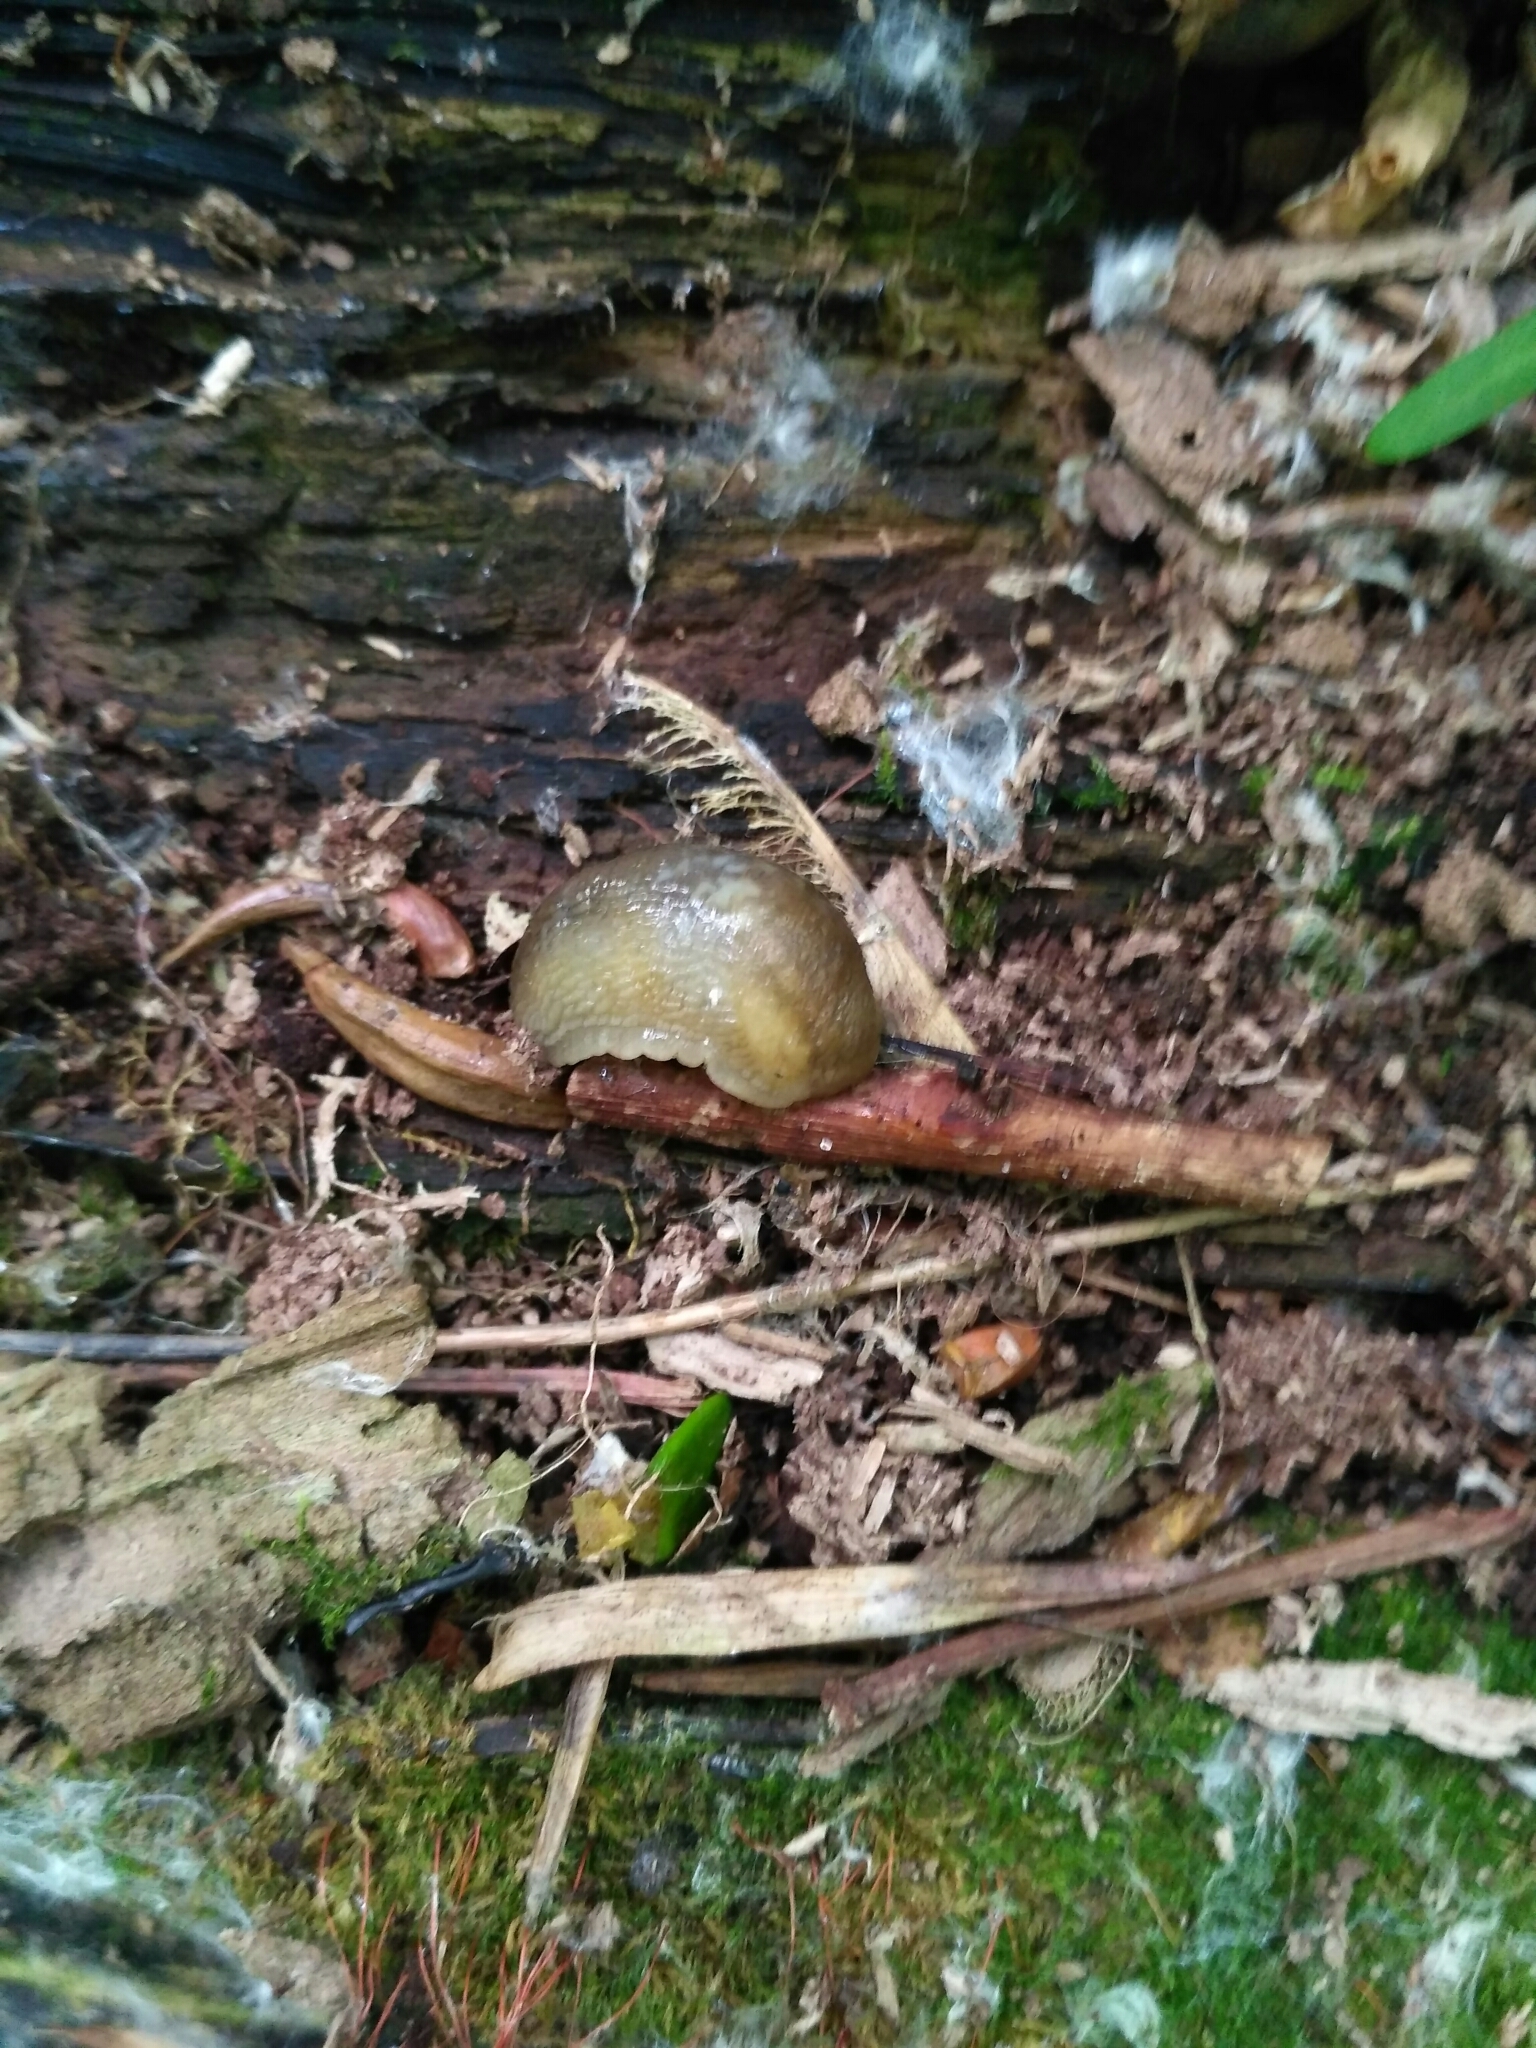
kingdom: Animalia
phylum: Mollusca
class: Gastropoda
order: Stylommatophora
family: Arionidae
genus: Arion
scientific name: Arion fuscus
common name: Northern dusky slug
